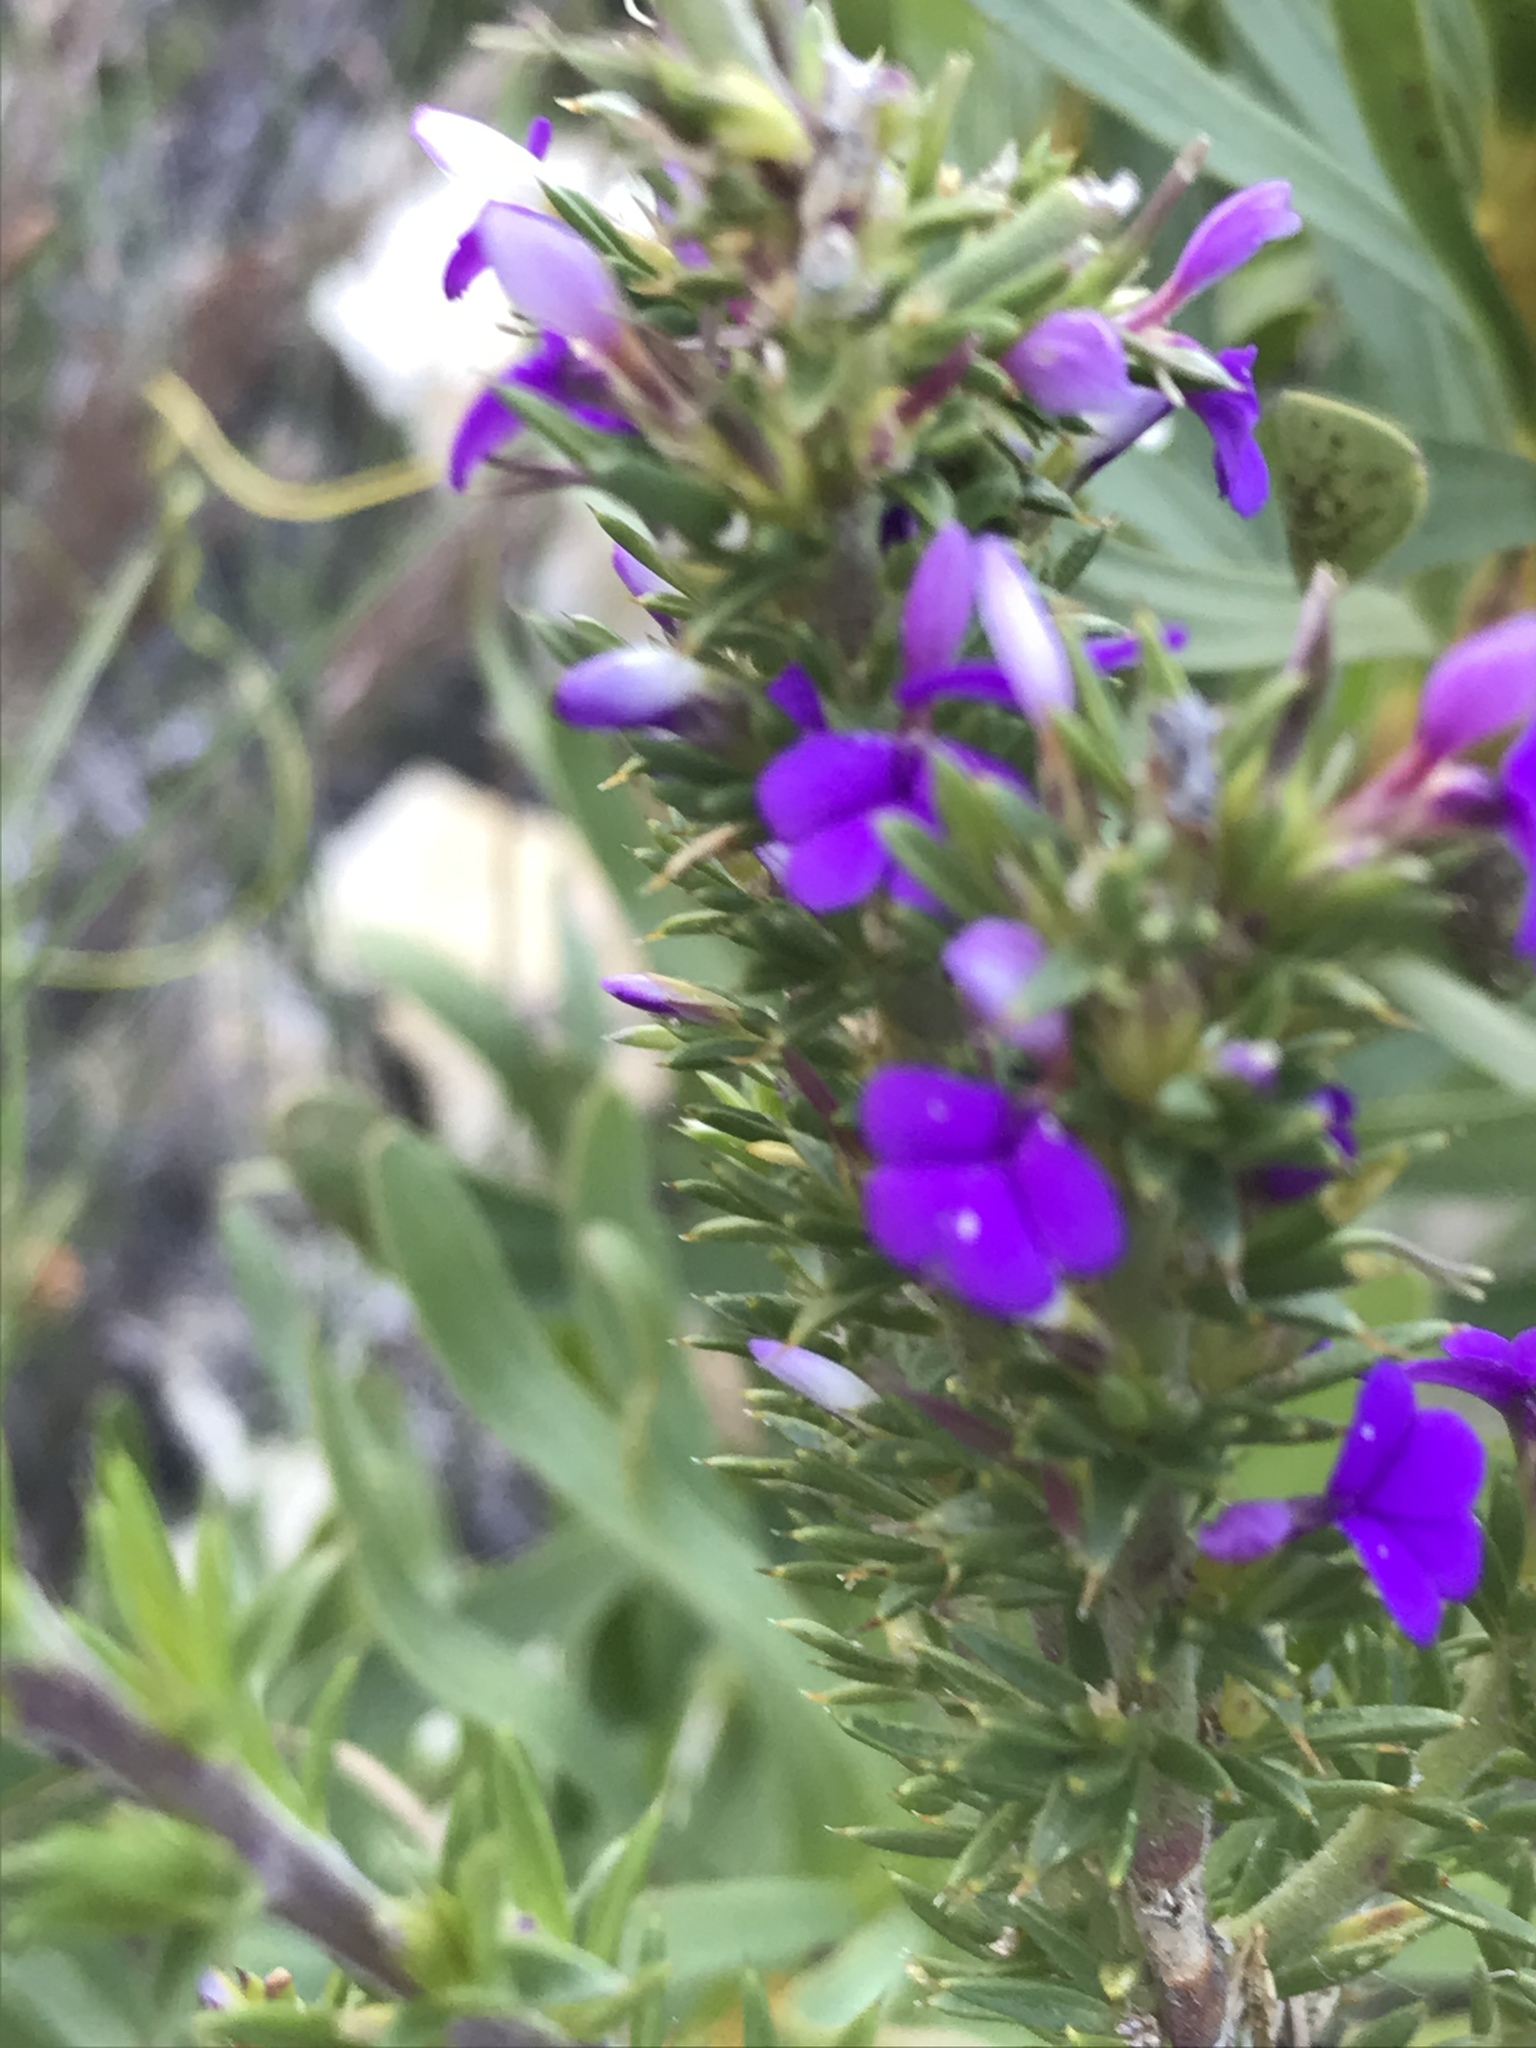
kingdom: Plantae
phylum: Tracheophyta
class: Magnoliopsida
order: Fabales
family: Polygalaceae
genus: Muraltia
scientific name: Muraltia heisteria
